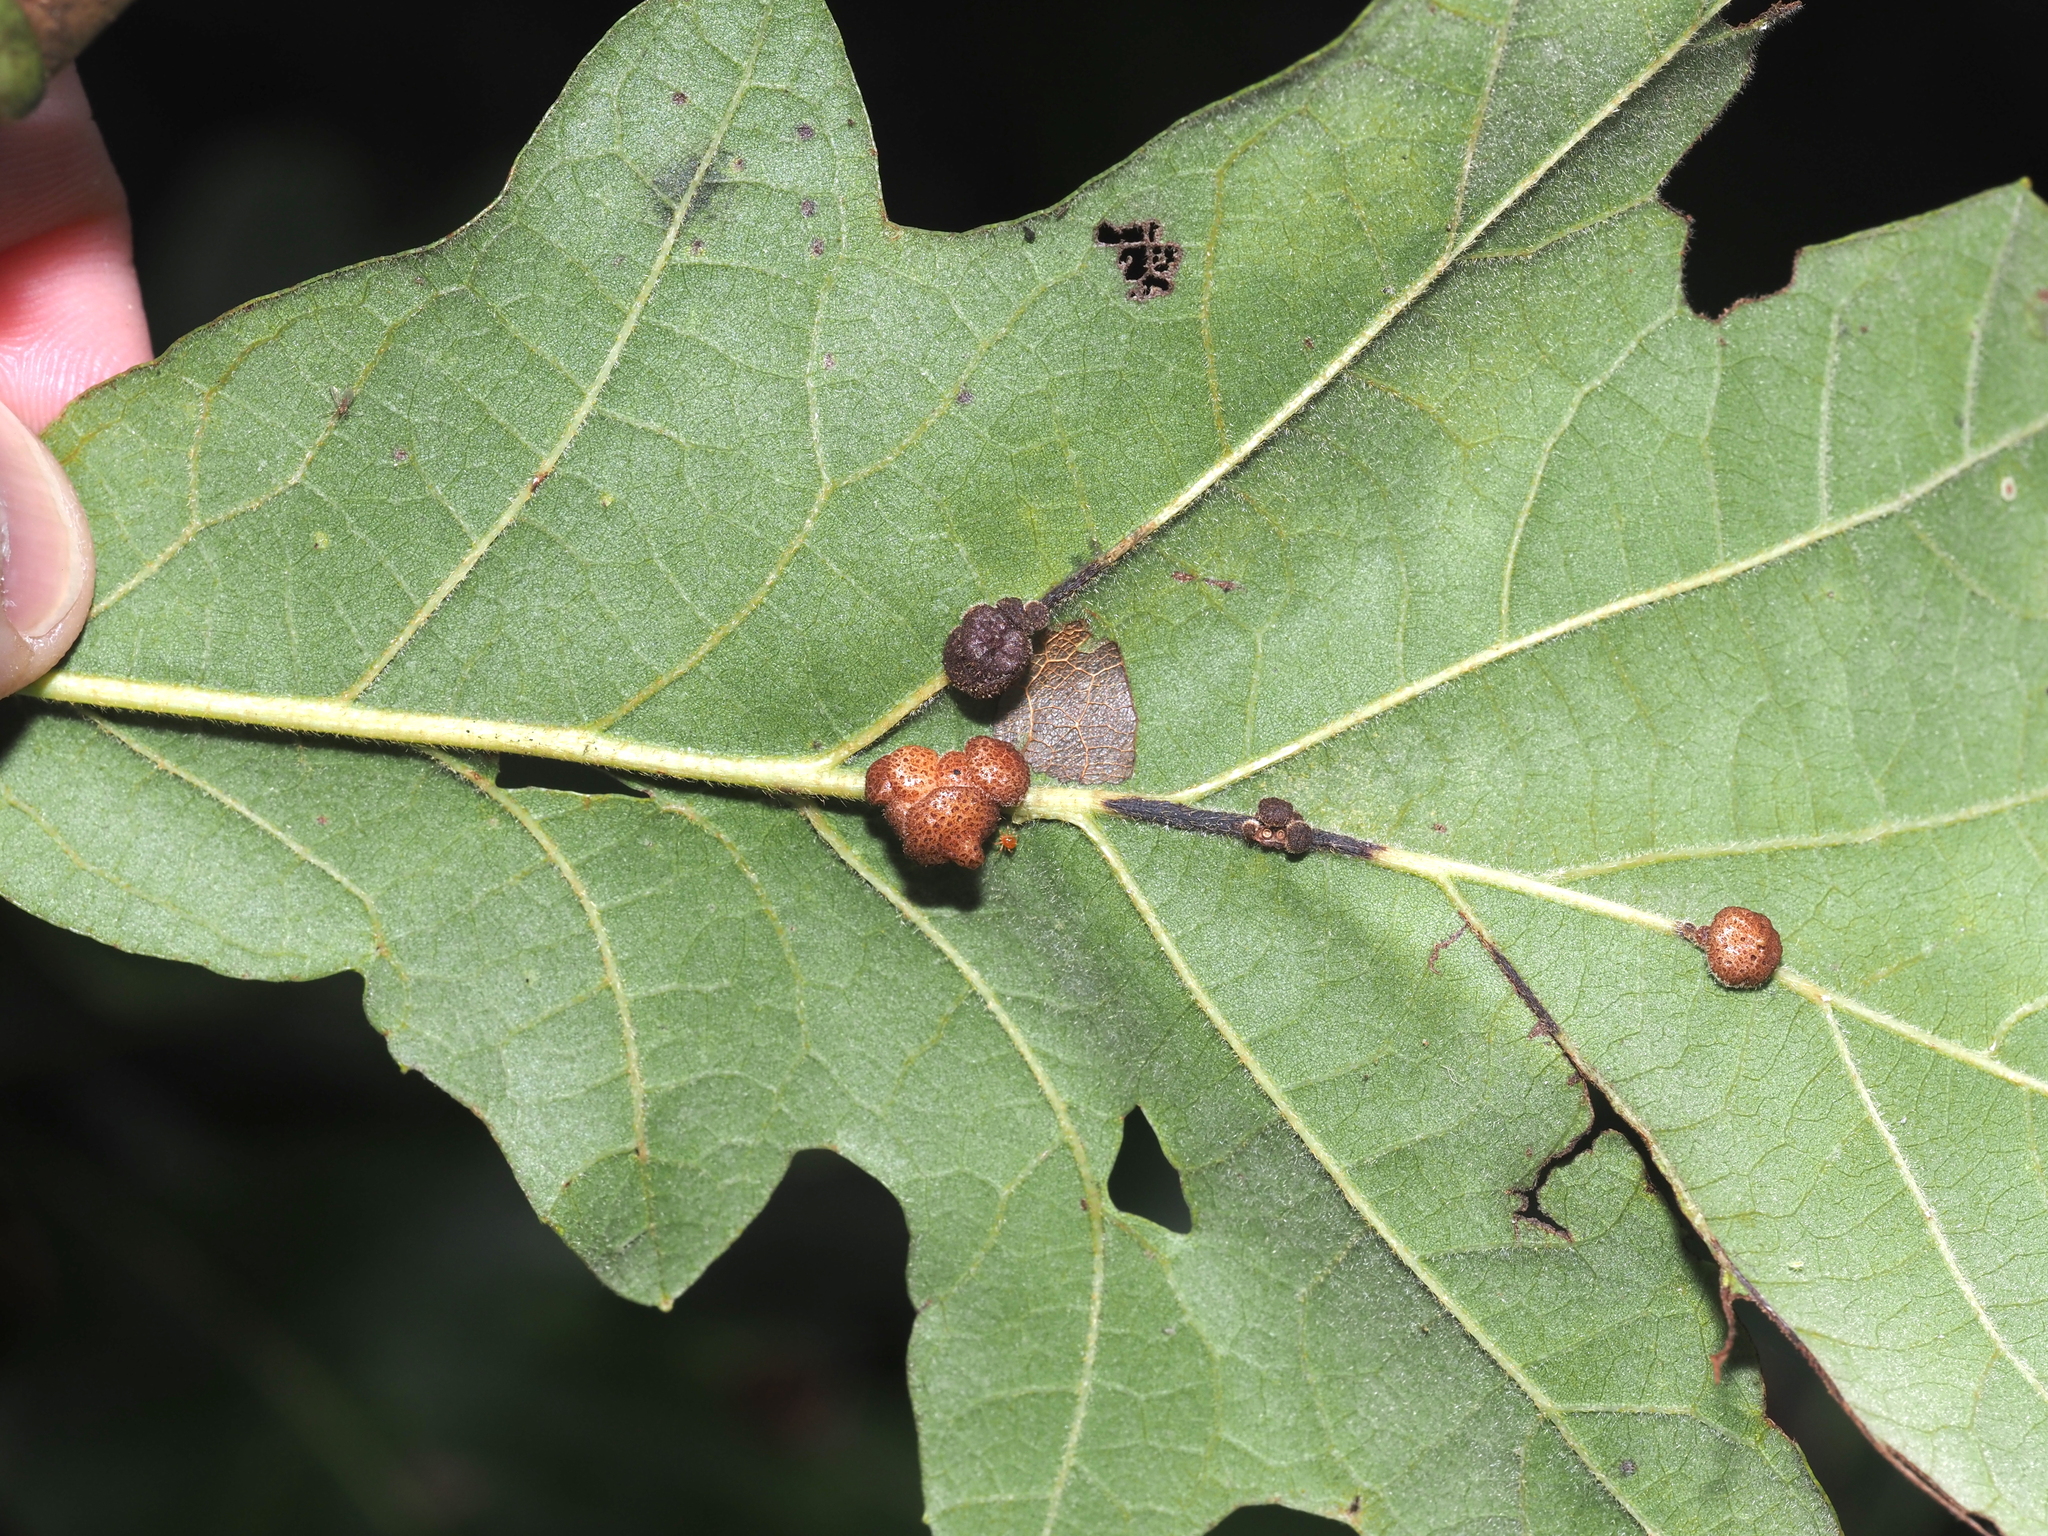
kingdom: Animalia
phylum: Arthropoda
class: Insecta
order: Hymenoptera
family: Cynipidae
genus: Andricus
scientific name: Andricus
